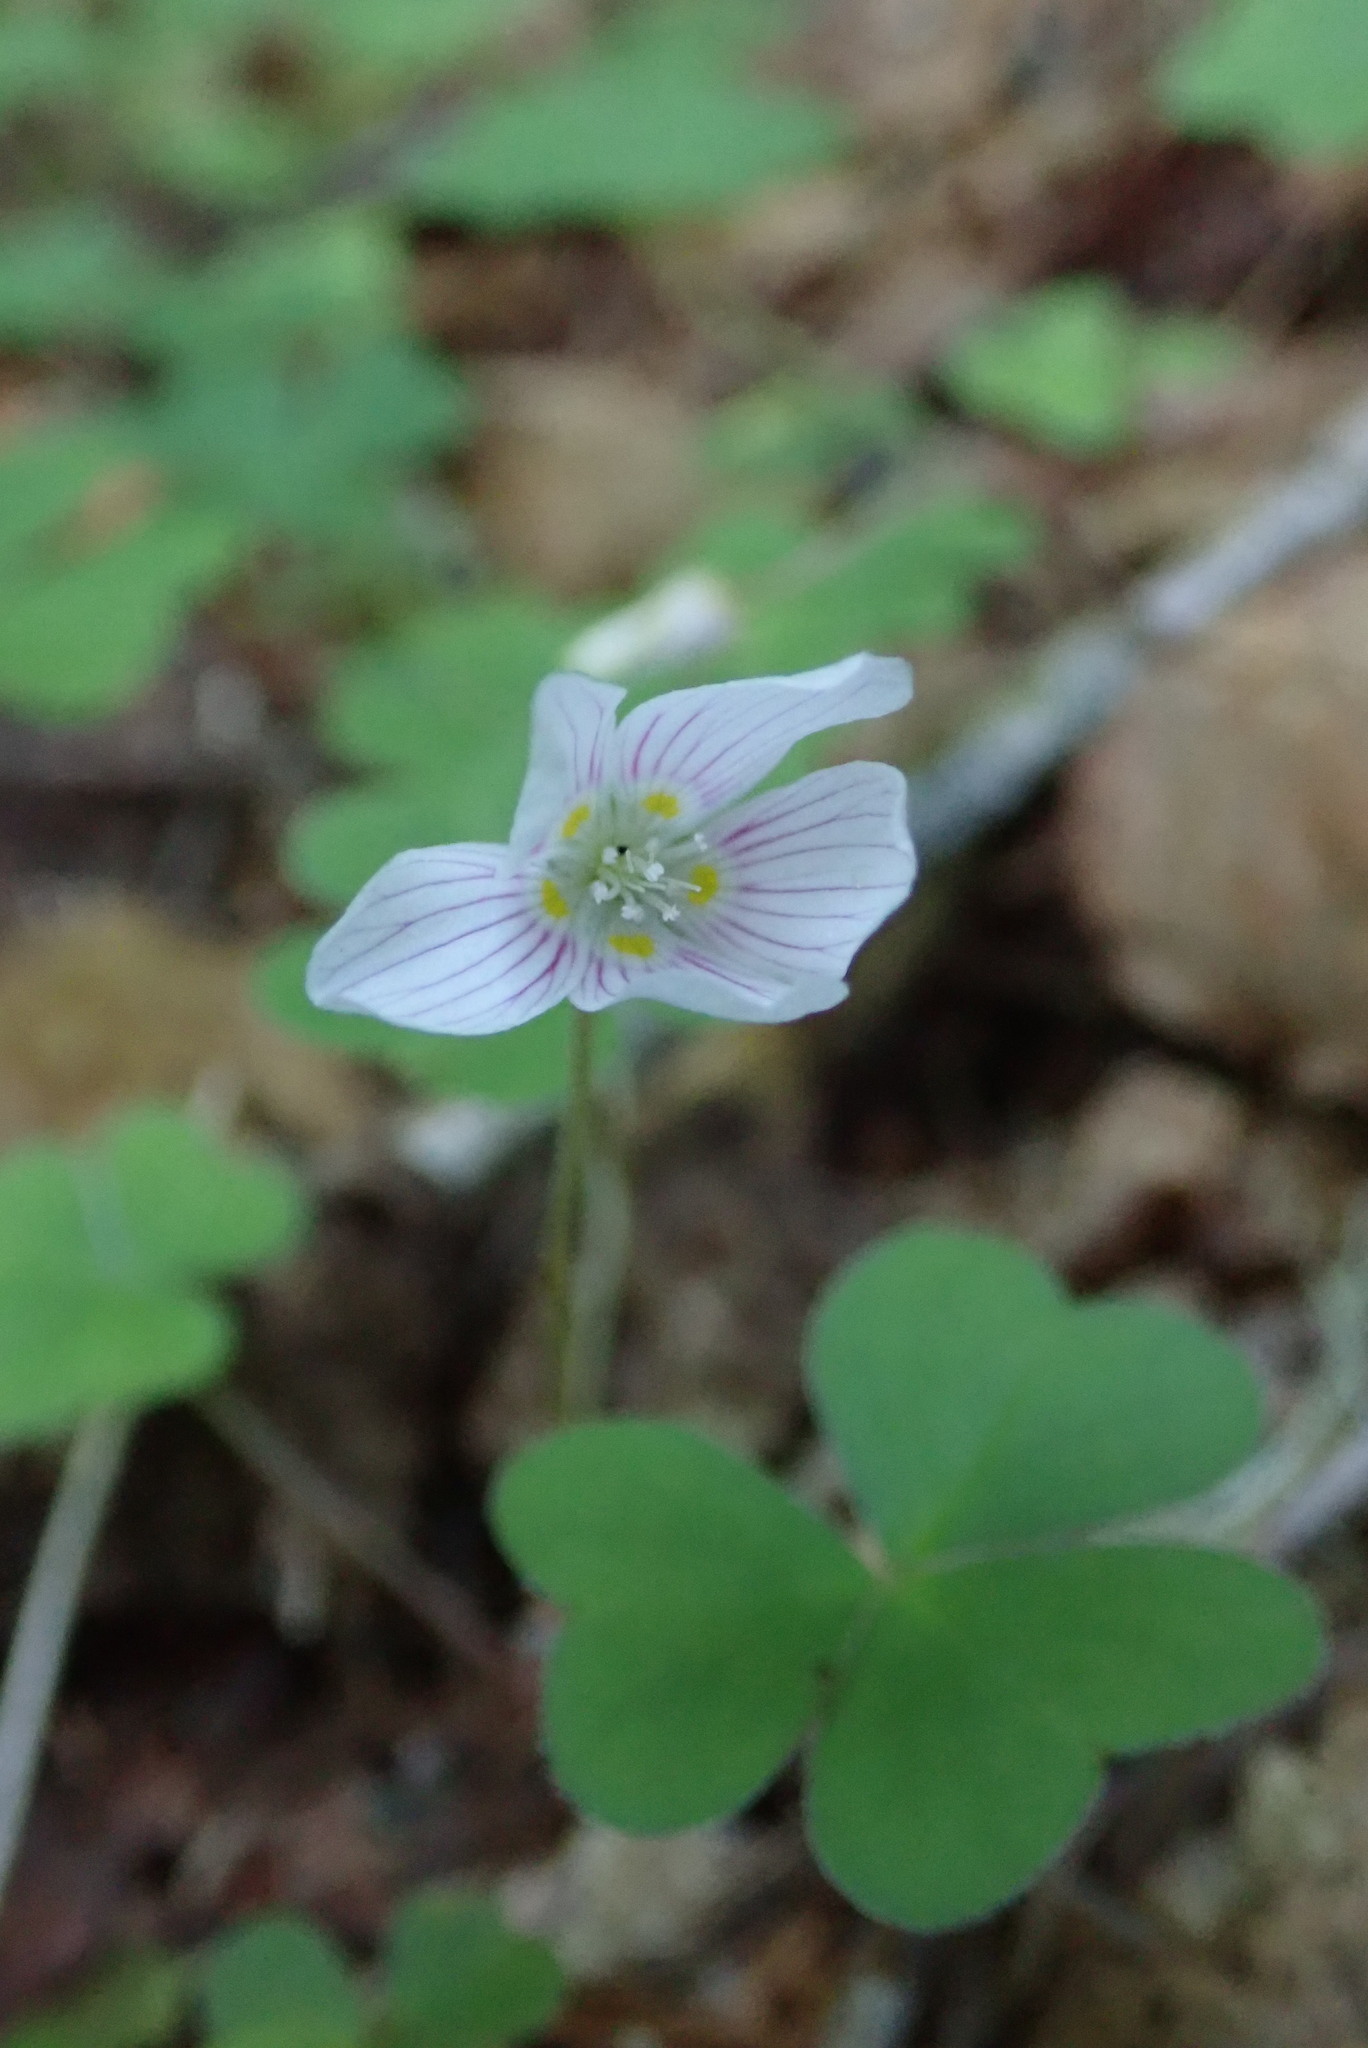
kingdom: Plantae
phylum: Tracheophyta
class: Magnoliopsida
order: Oxalidales
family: Oxalidaceae
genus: Oxalis
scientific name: Oxalis montana
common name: American wood-sorrel
